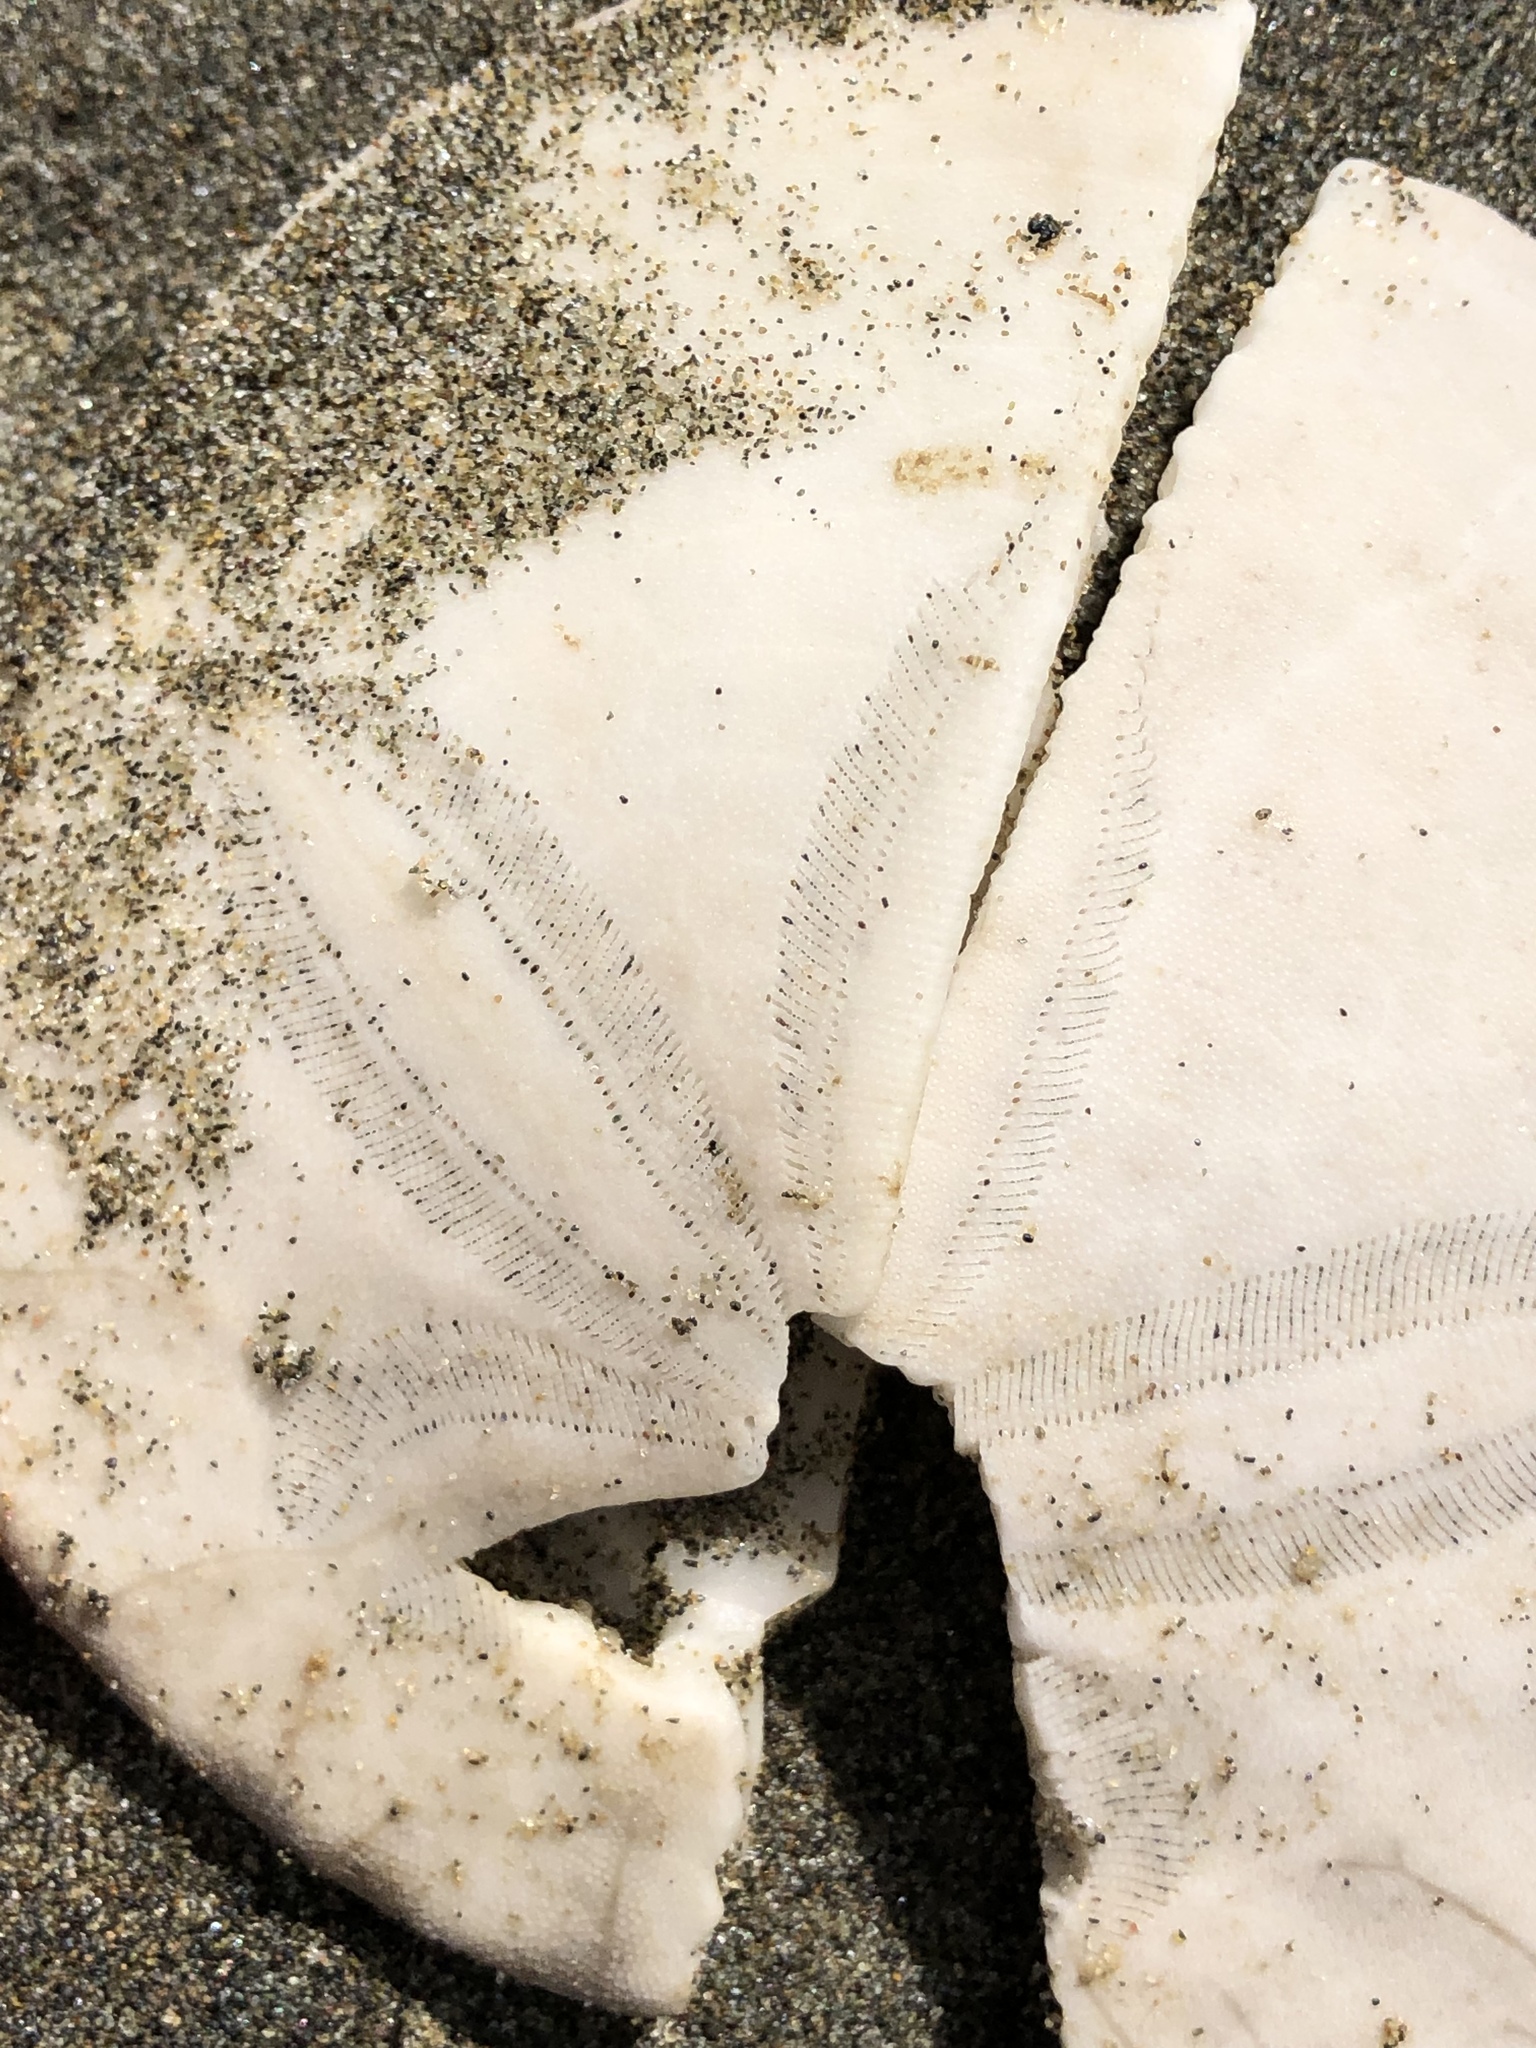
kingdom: Animalia
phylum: Echinodermata
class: Echinoidea
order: Echinolampadacea
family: Dendrasteridae
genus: Dendraster
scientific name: Dendraster excentricus
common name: Eccentric sand dollar sea urchin
